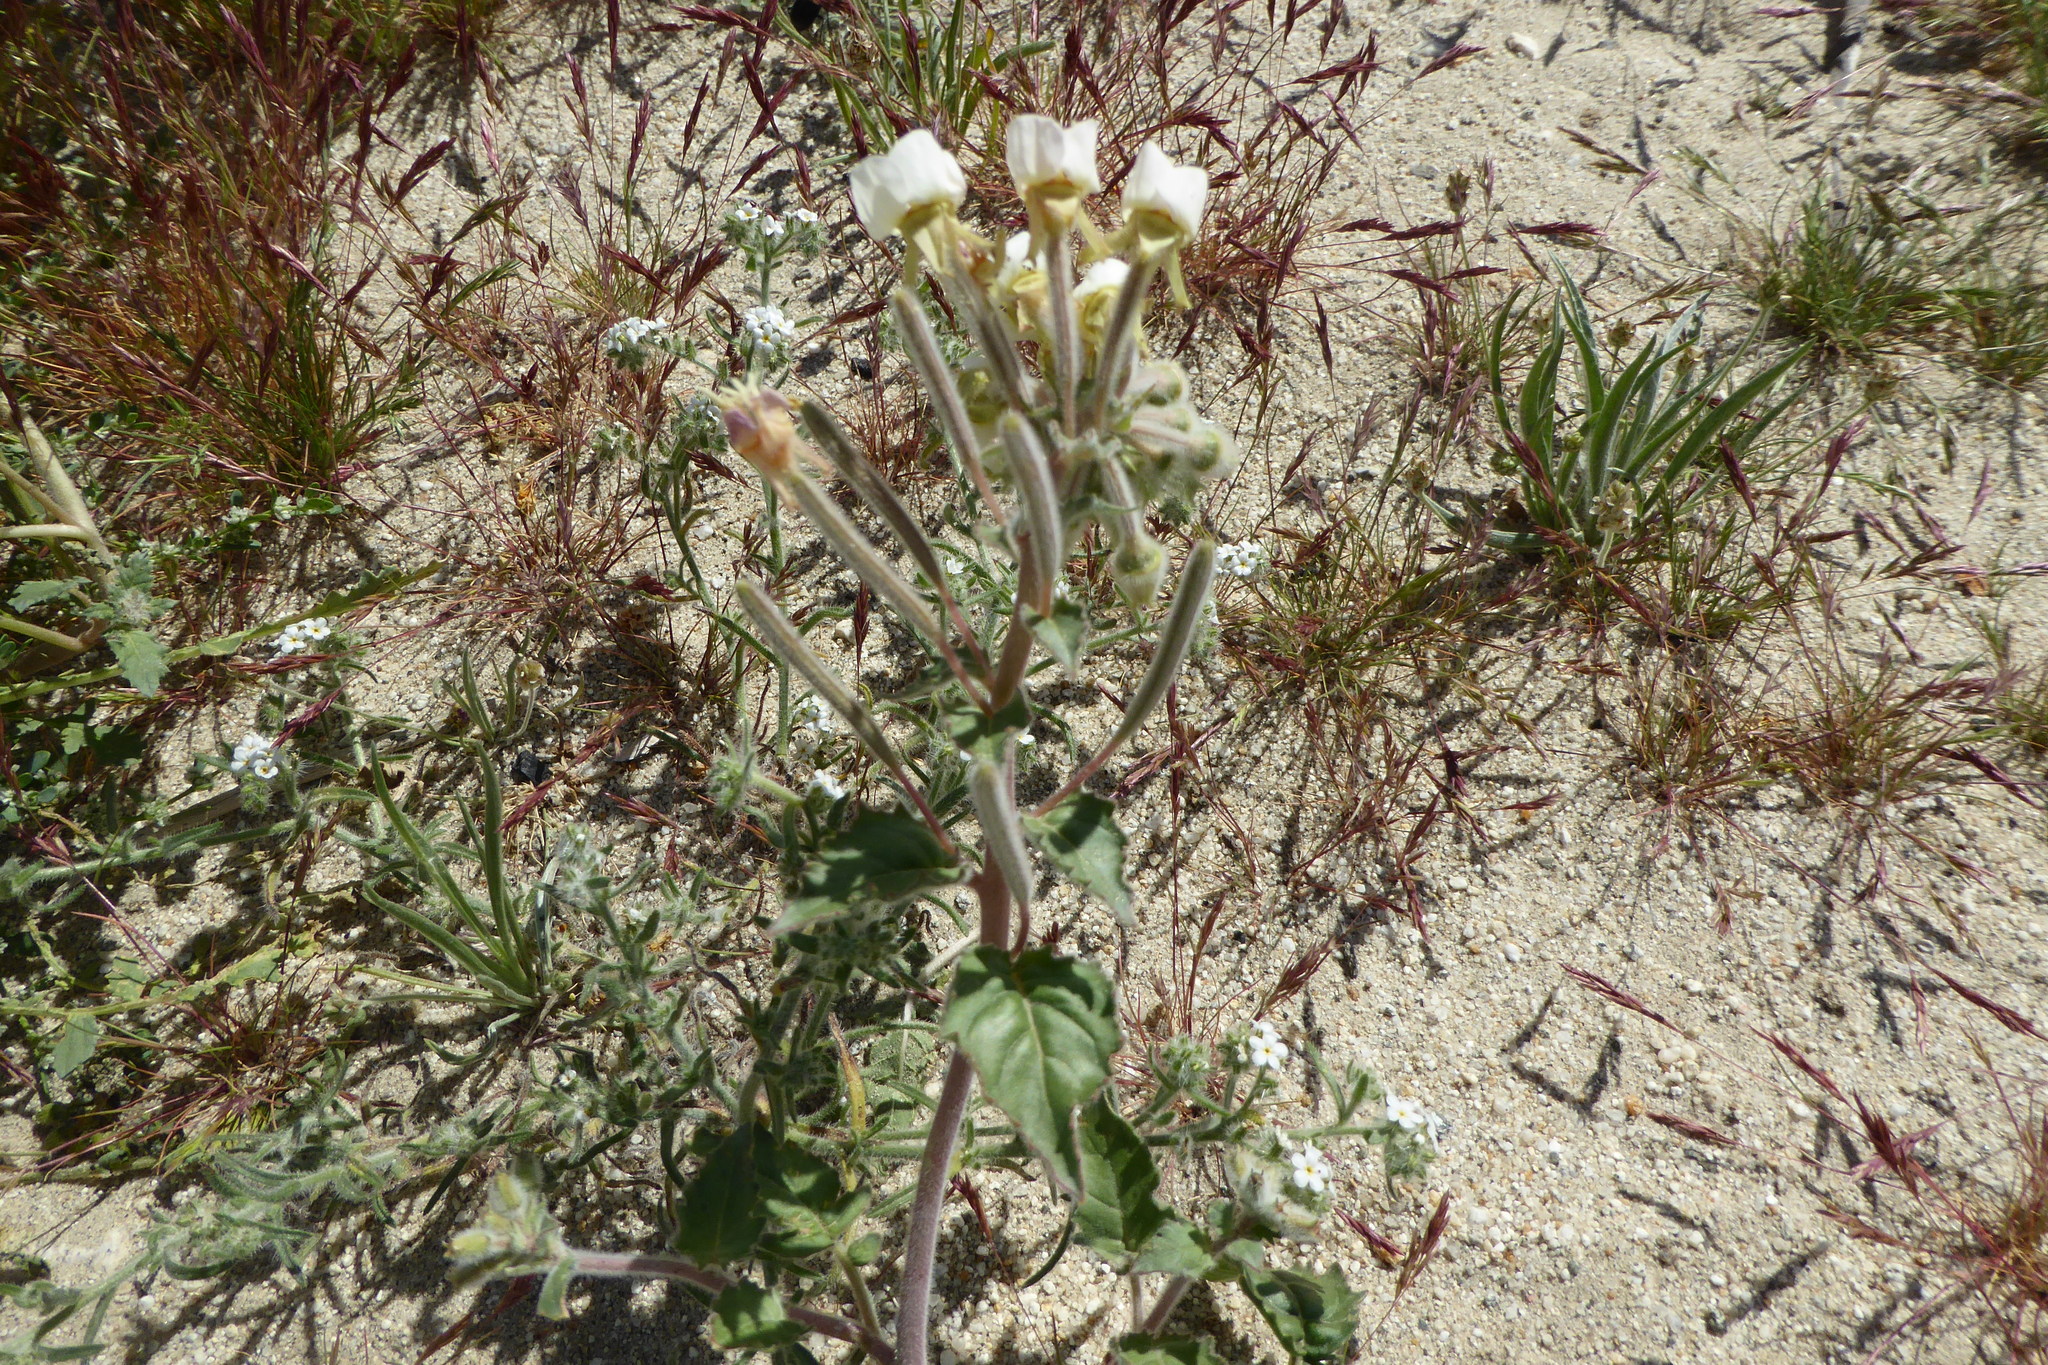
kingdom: Plantae
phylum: Tracheophyta
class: Magnoliopsida
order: Myrtales
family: Onagraceae
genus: Chylismia
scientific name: Chylismia claviformis
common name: Browneyes
